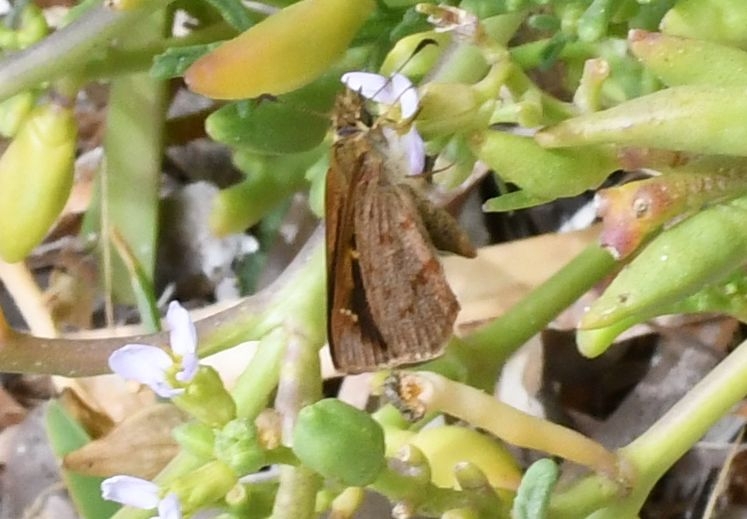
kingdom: Animalia
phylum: Arthropoda
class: Insecta
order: Lepidoptera
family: Hesperiidae
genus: Anisynta
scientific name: Anisynta sphenosema
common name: Wedge grass-skipper
